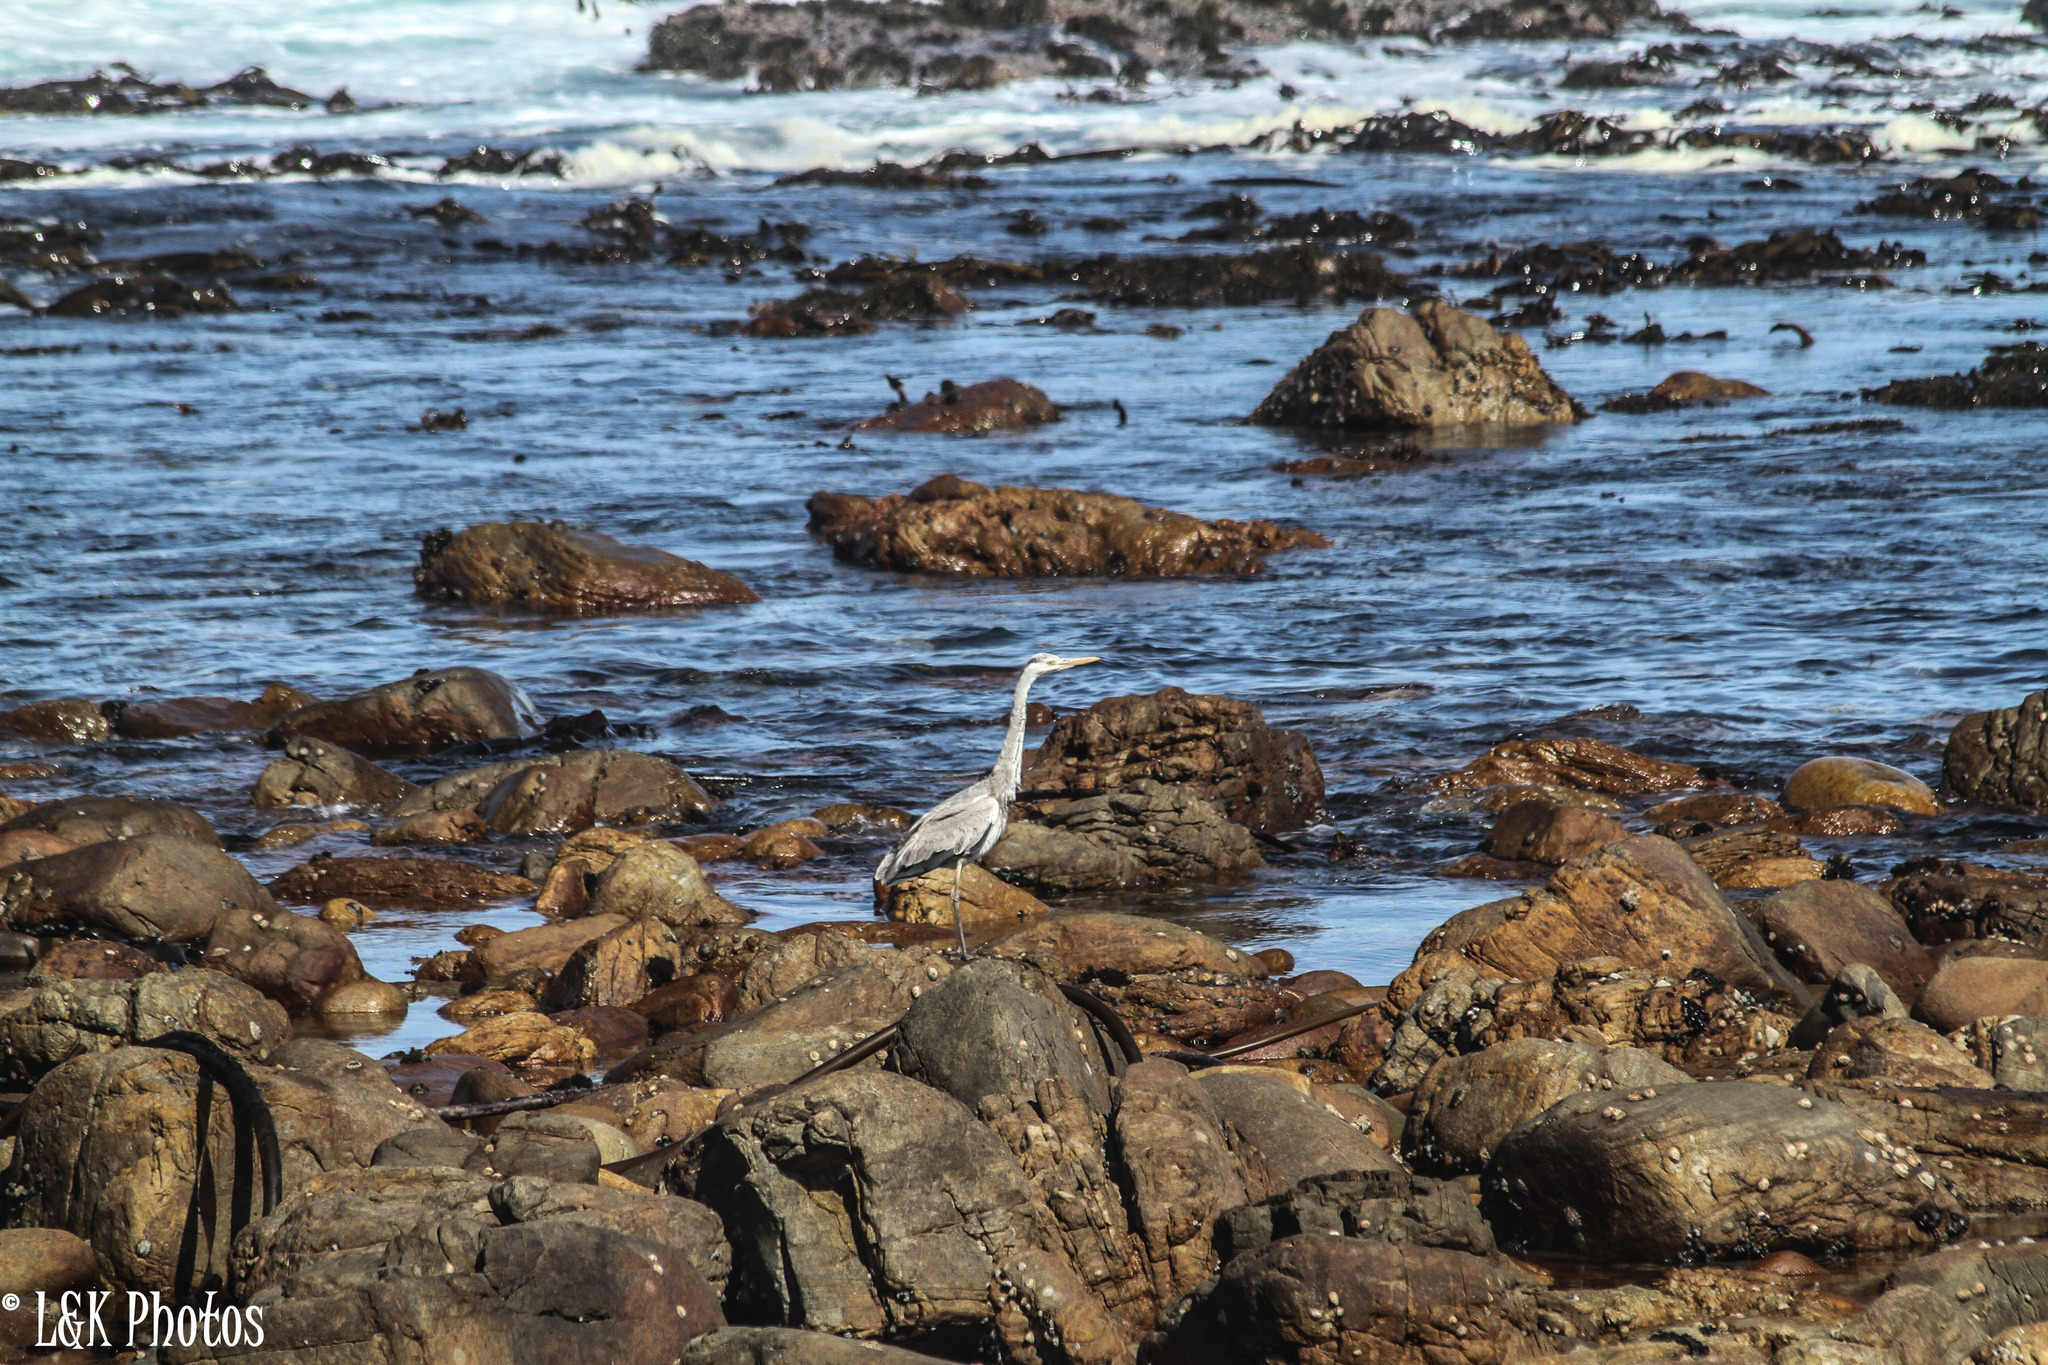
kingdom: Animalia
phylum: Chordata
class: Aves
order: Pelecaniformes
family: Ardeidae
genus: Ardea
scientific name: Ardea cinerea
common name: Grey heron
